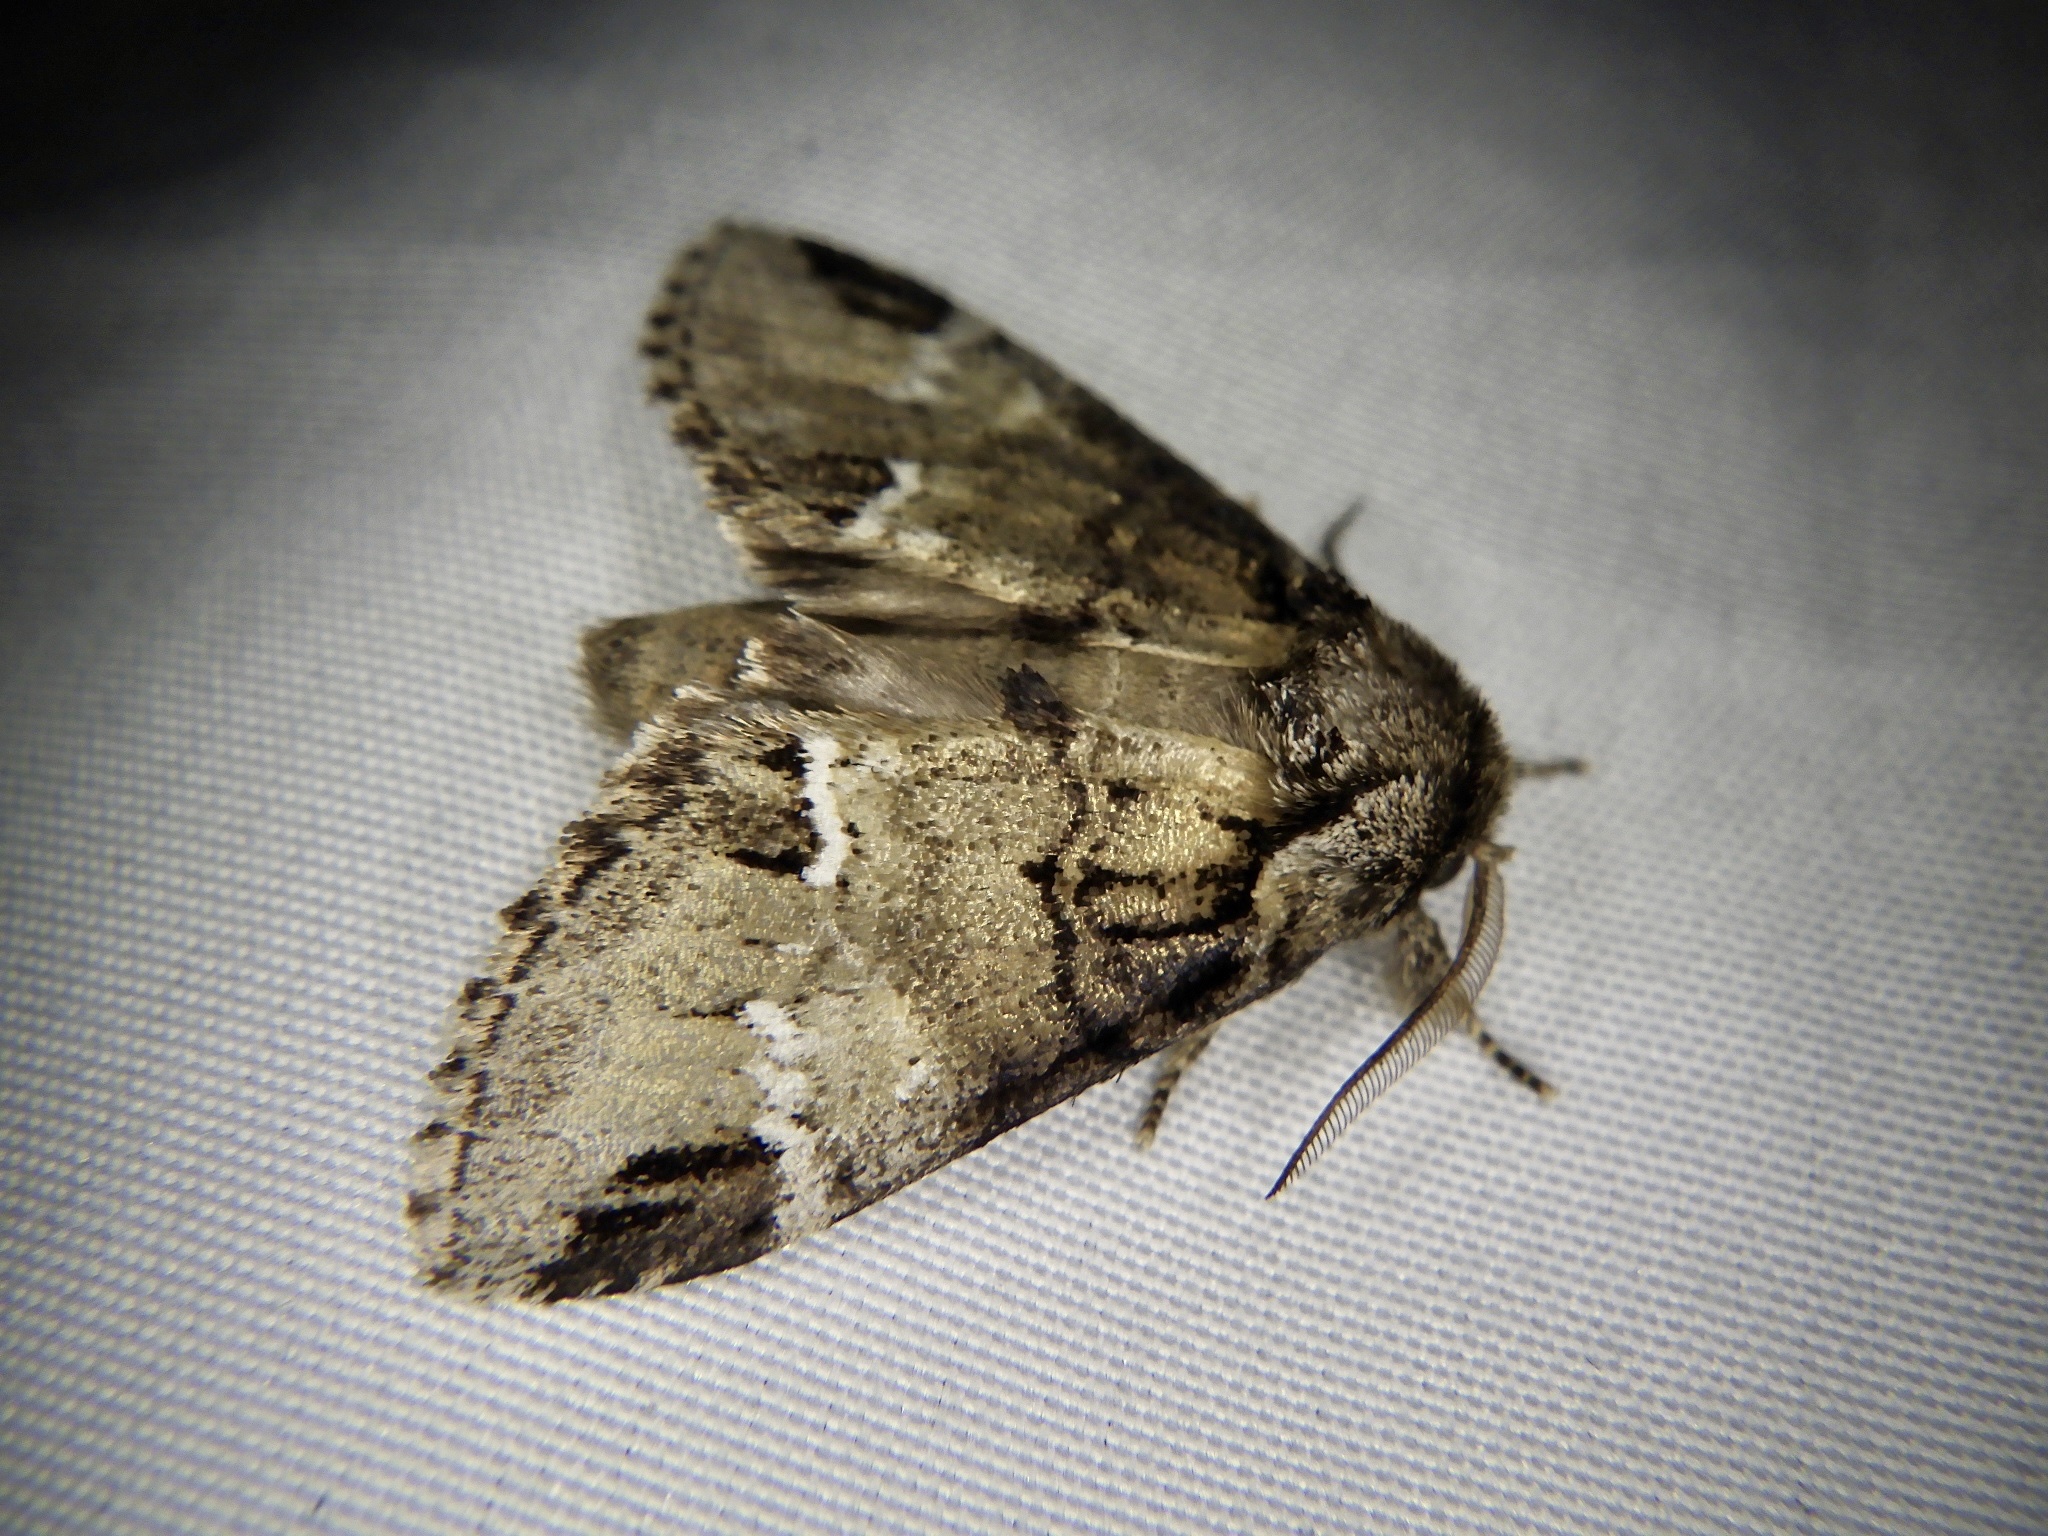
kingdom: Animalia
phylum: Arthropoda
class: Insecta
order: Lepidoptera
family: Notodontidae
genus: Drymonia
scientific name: Drymonia japonica
